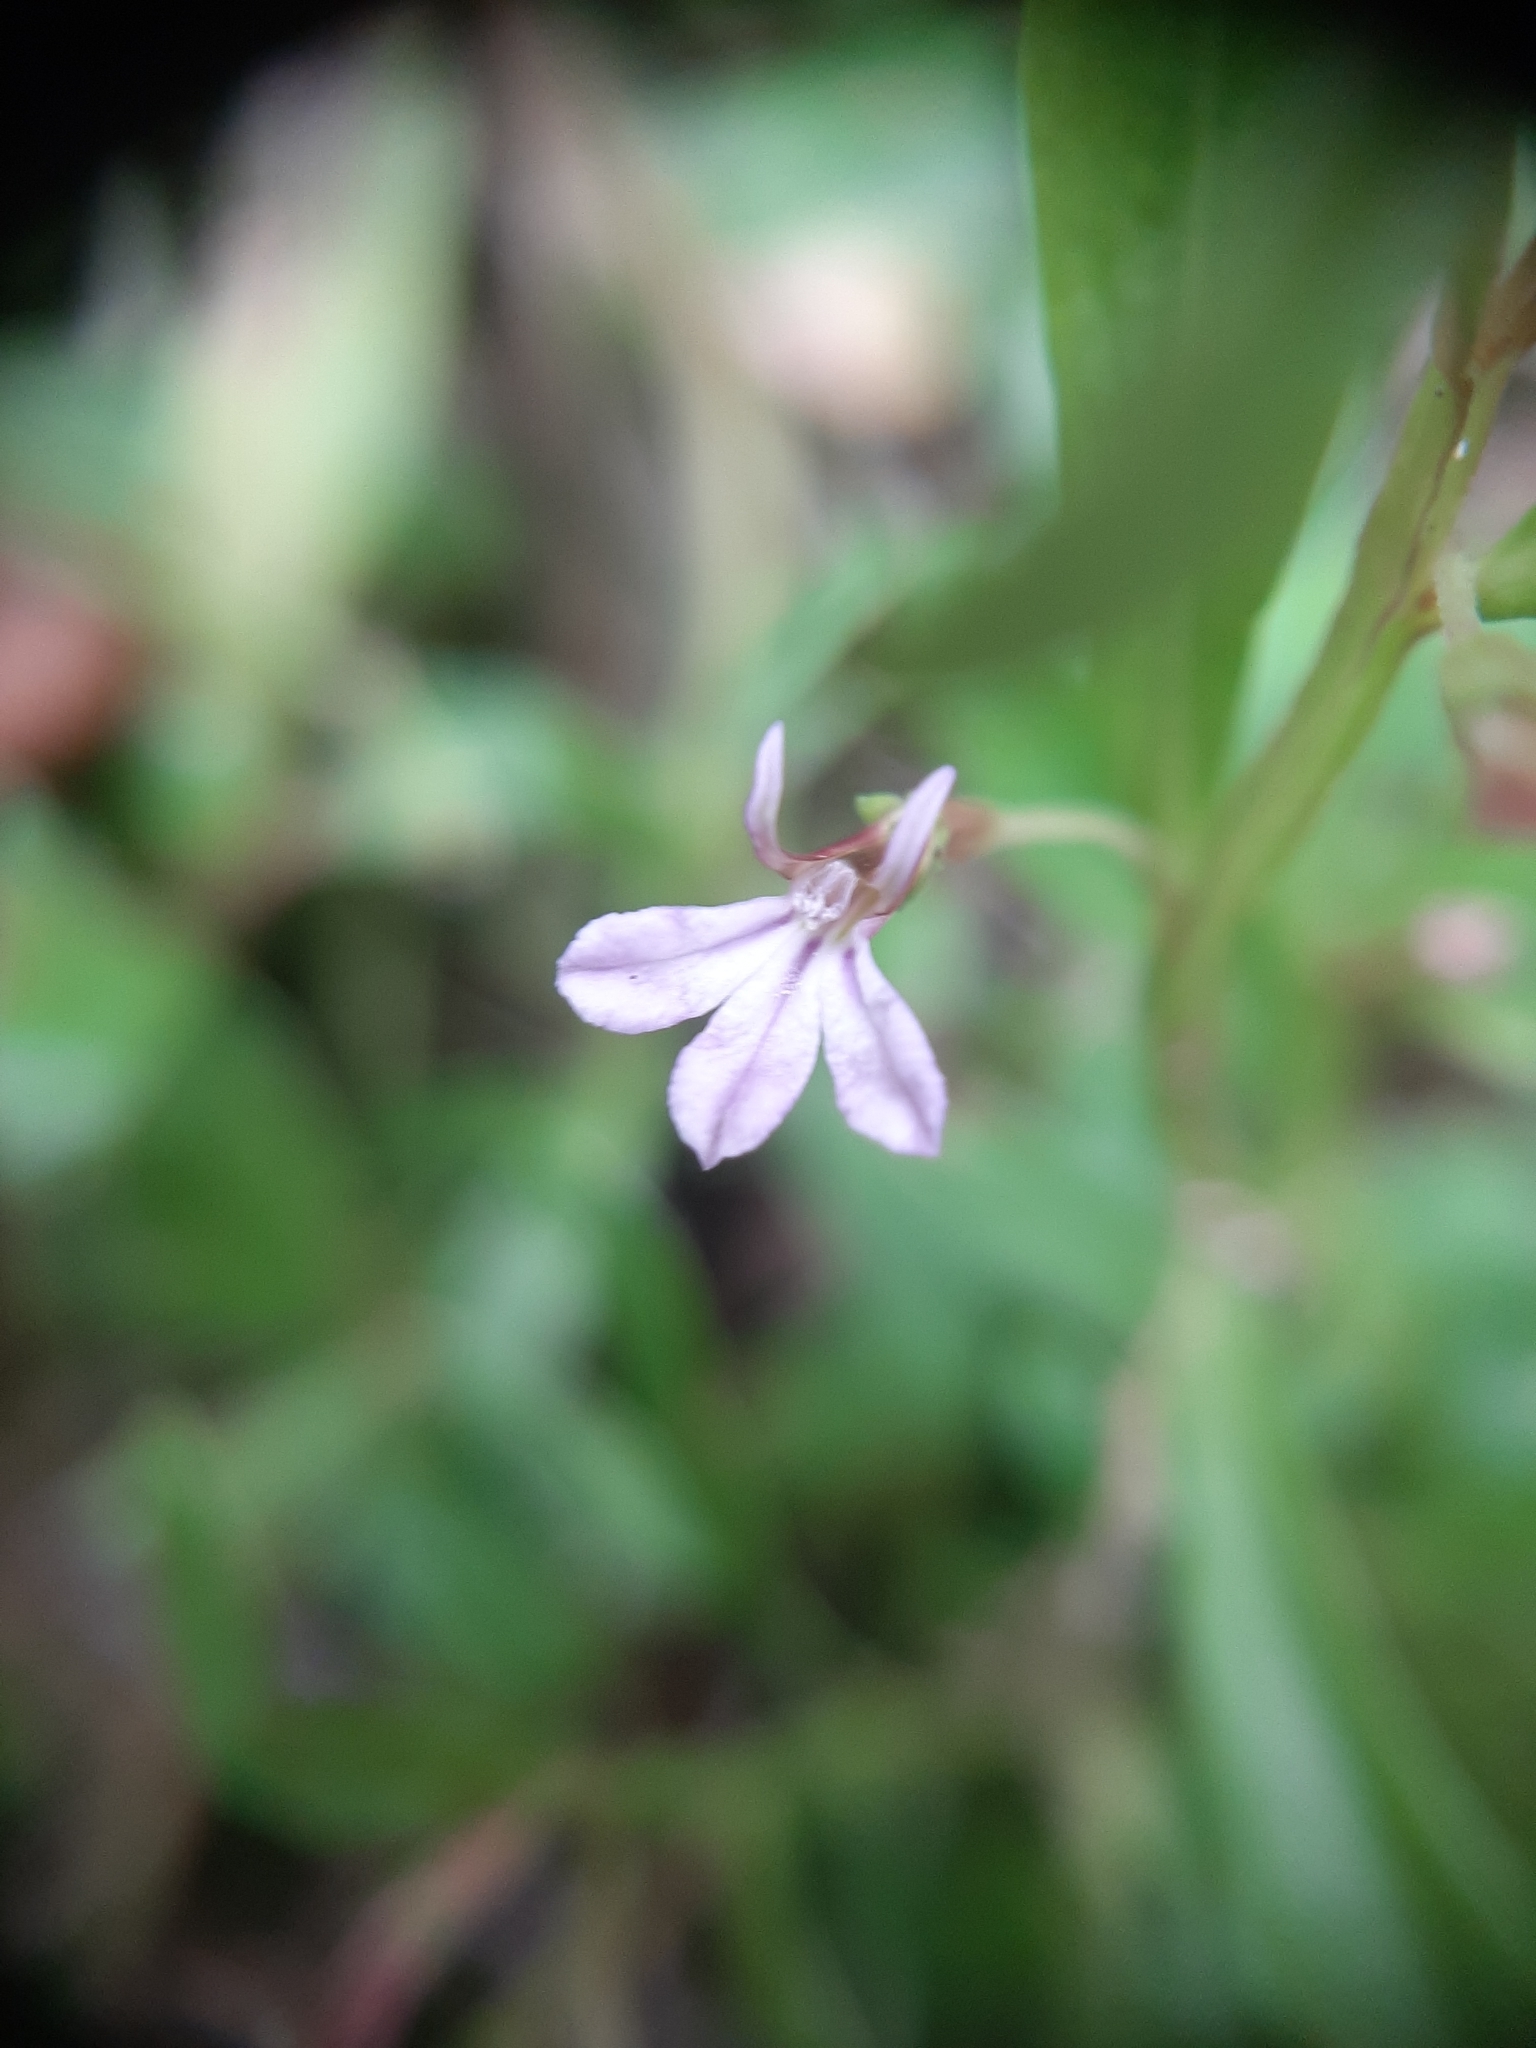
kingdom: Plantae
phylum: Tracheophyta
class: Magnoliopsida
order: Asterales
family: Campanulaceae
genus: Lobelia
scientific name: Lobelia anceps
